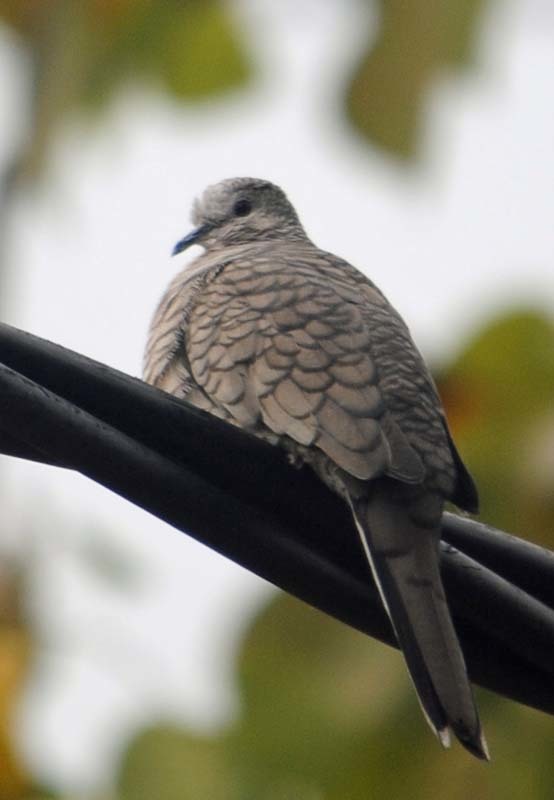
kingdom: Animalia
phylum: Chordata
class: Aves
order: Columbiformes
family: Columbidae
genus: Columbina
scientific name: Columbina inca
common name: Inca dove
